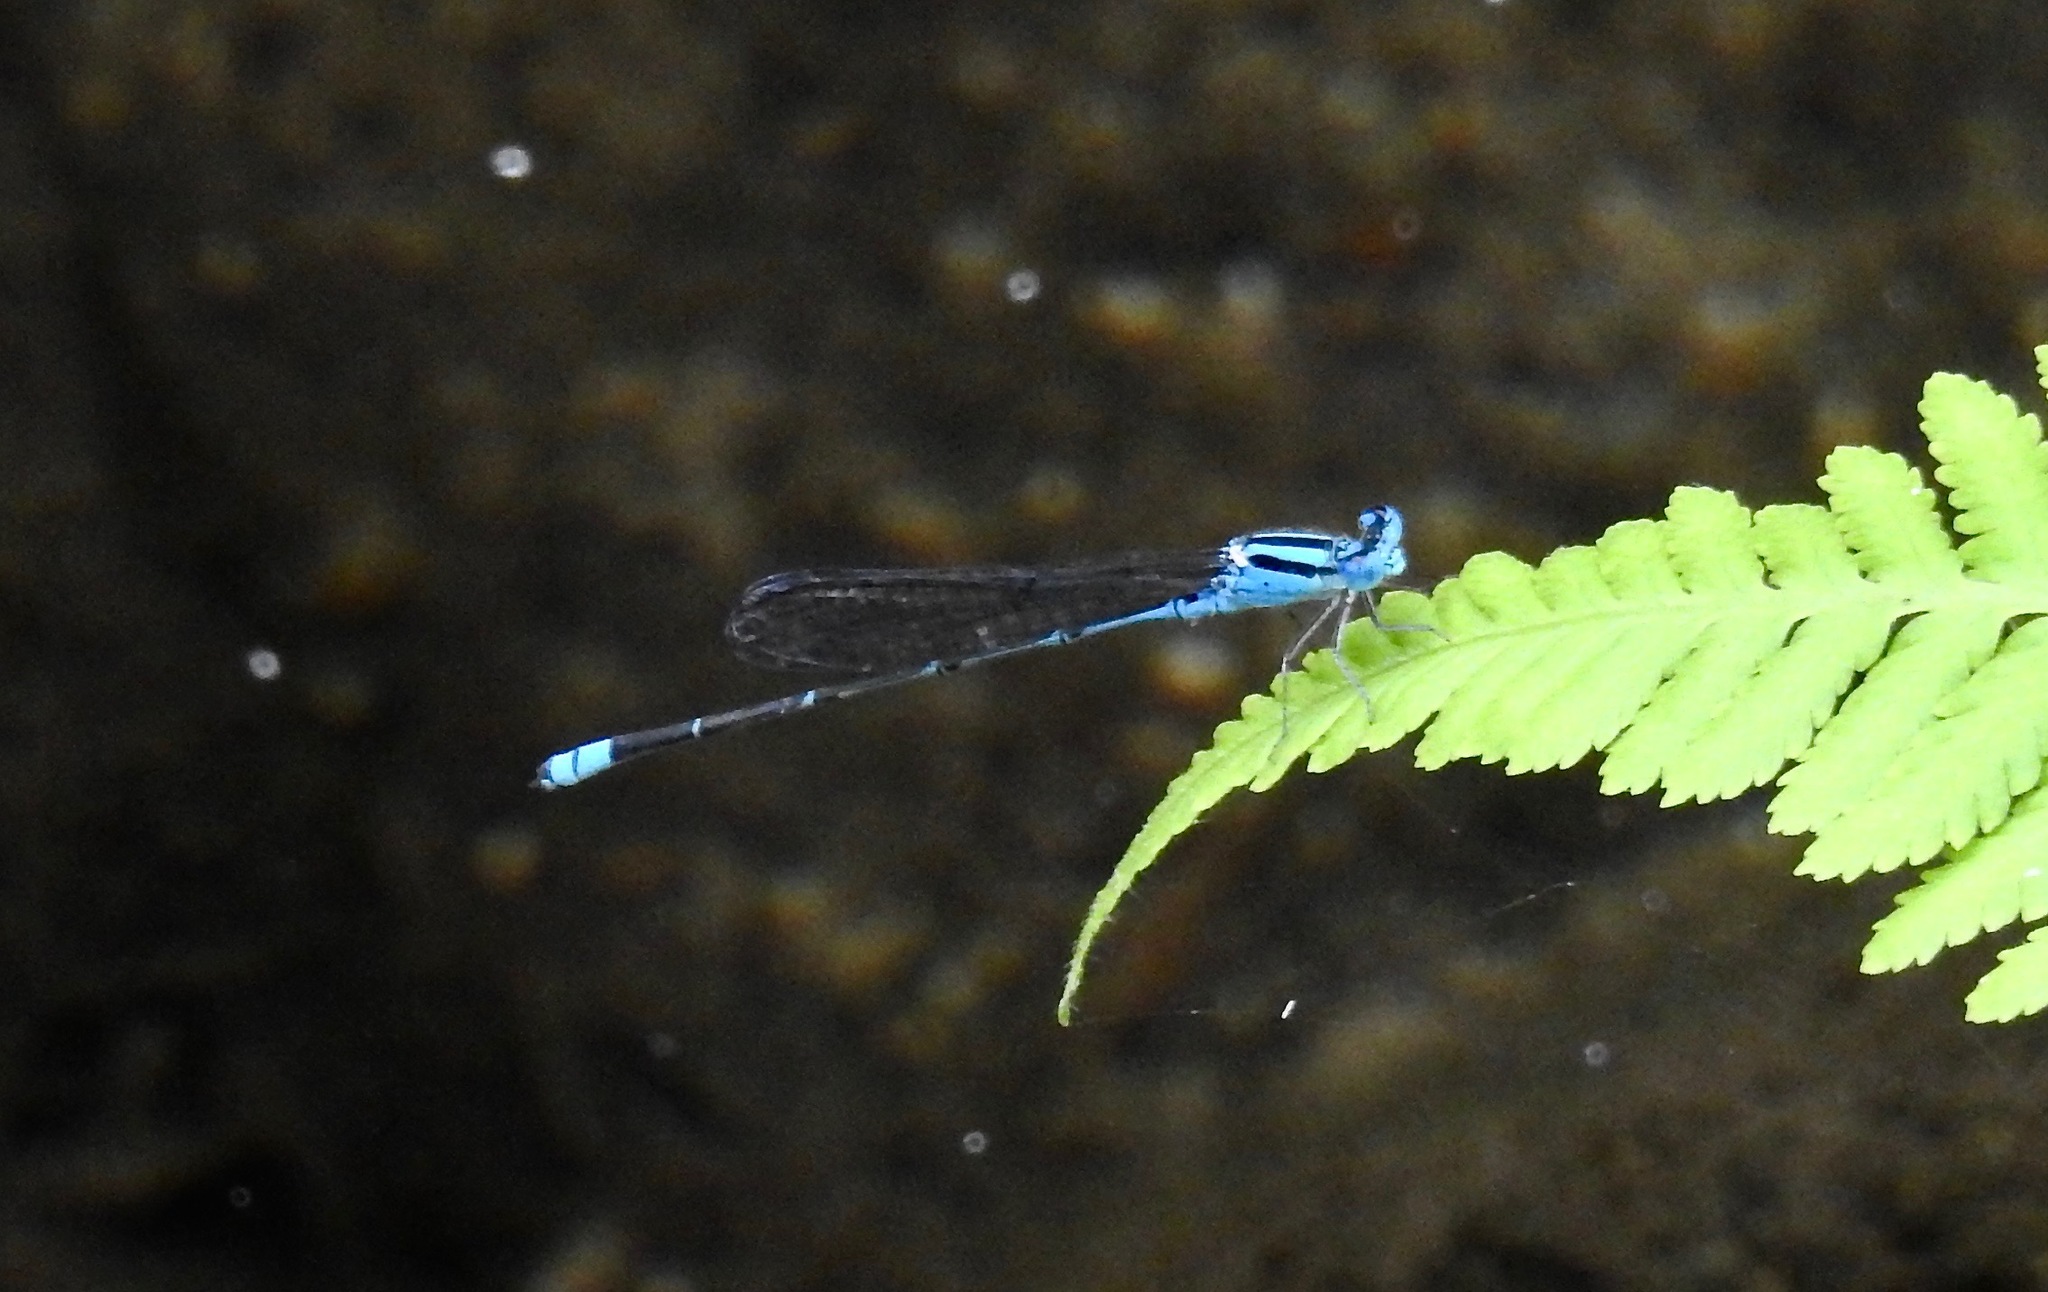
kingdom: Animalia
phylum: Arthropoda
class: Insecta
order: Odonata
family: Coenagrionidae
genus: Pseudagrion
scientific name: Pseudagrion microcephalum
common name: Blue riverdamsel
